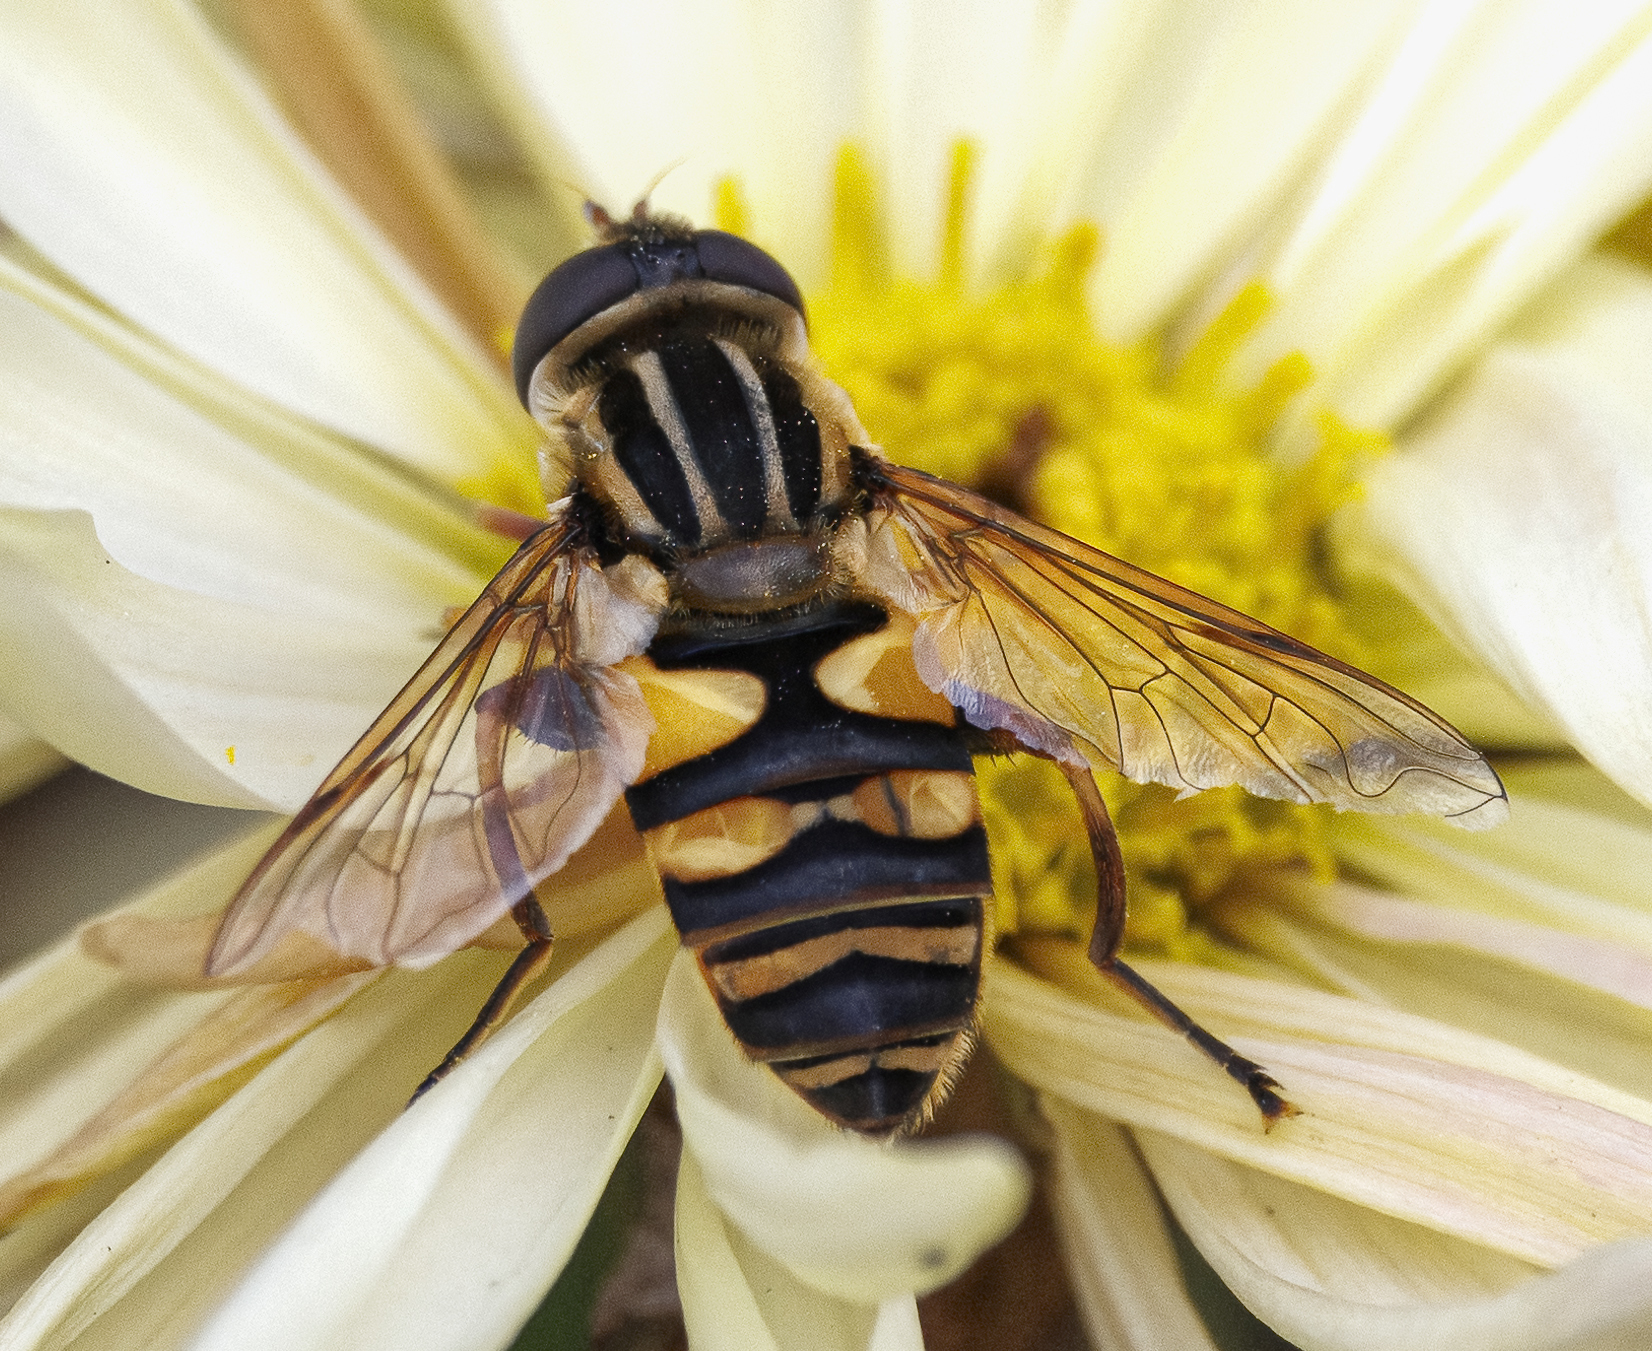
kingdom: Animalia
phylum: Arthropoda
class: Insecta
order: Diptera
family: Syrphidae
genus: Helophilus
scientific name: Helophilus fasciatus
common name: Narrow-headed marsh fly
